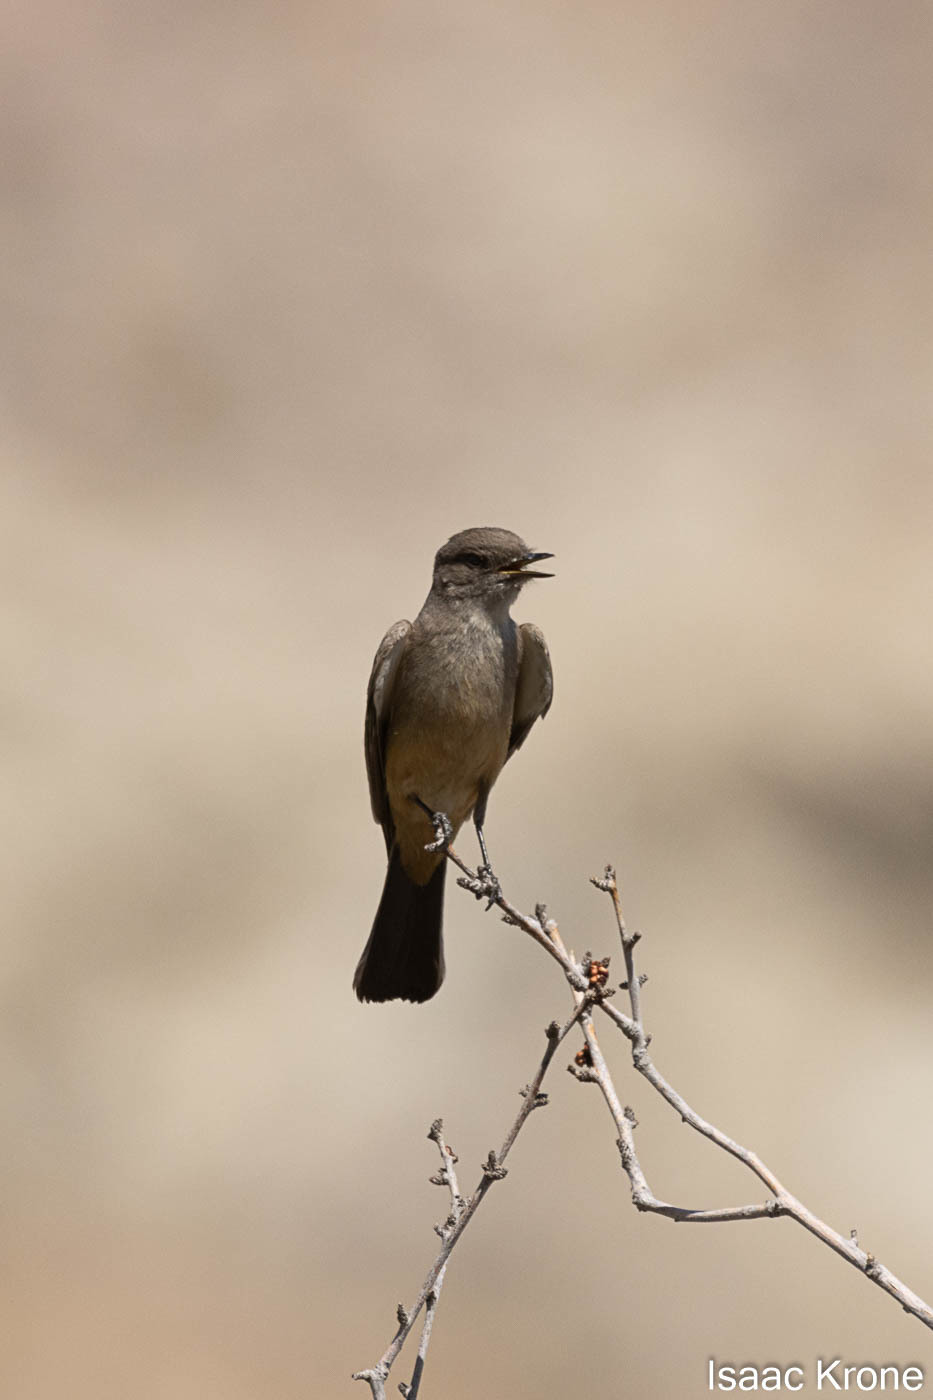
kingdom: Animalia
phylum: Chordata
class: Aves
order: Passeriformes
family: Tyrannidae
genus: Sayornis
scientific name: Sayornis saya
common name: Say's phoebe
